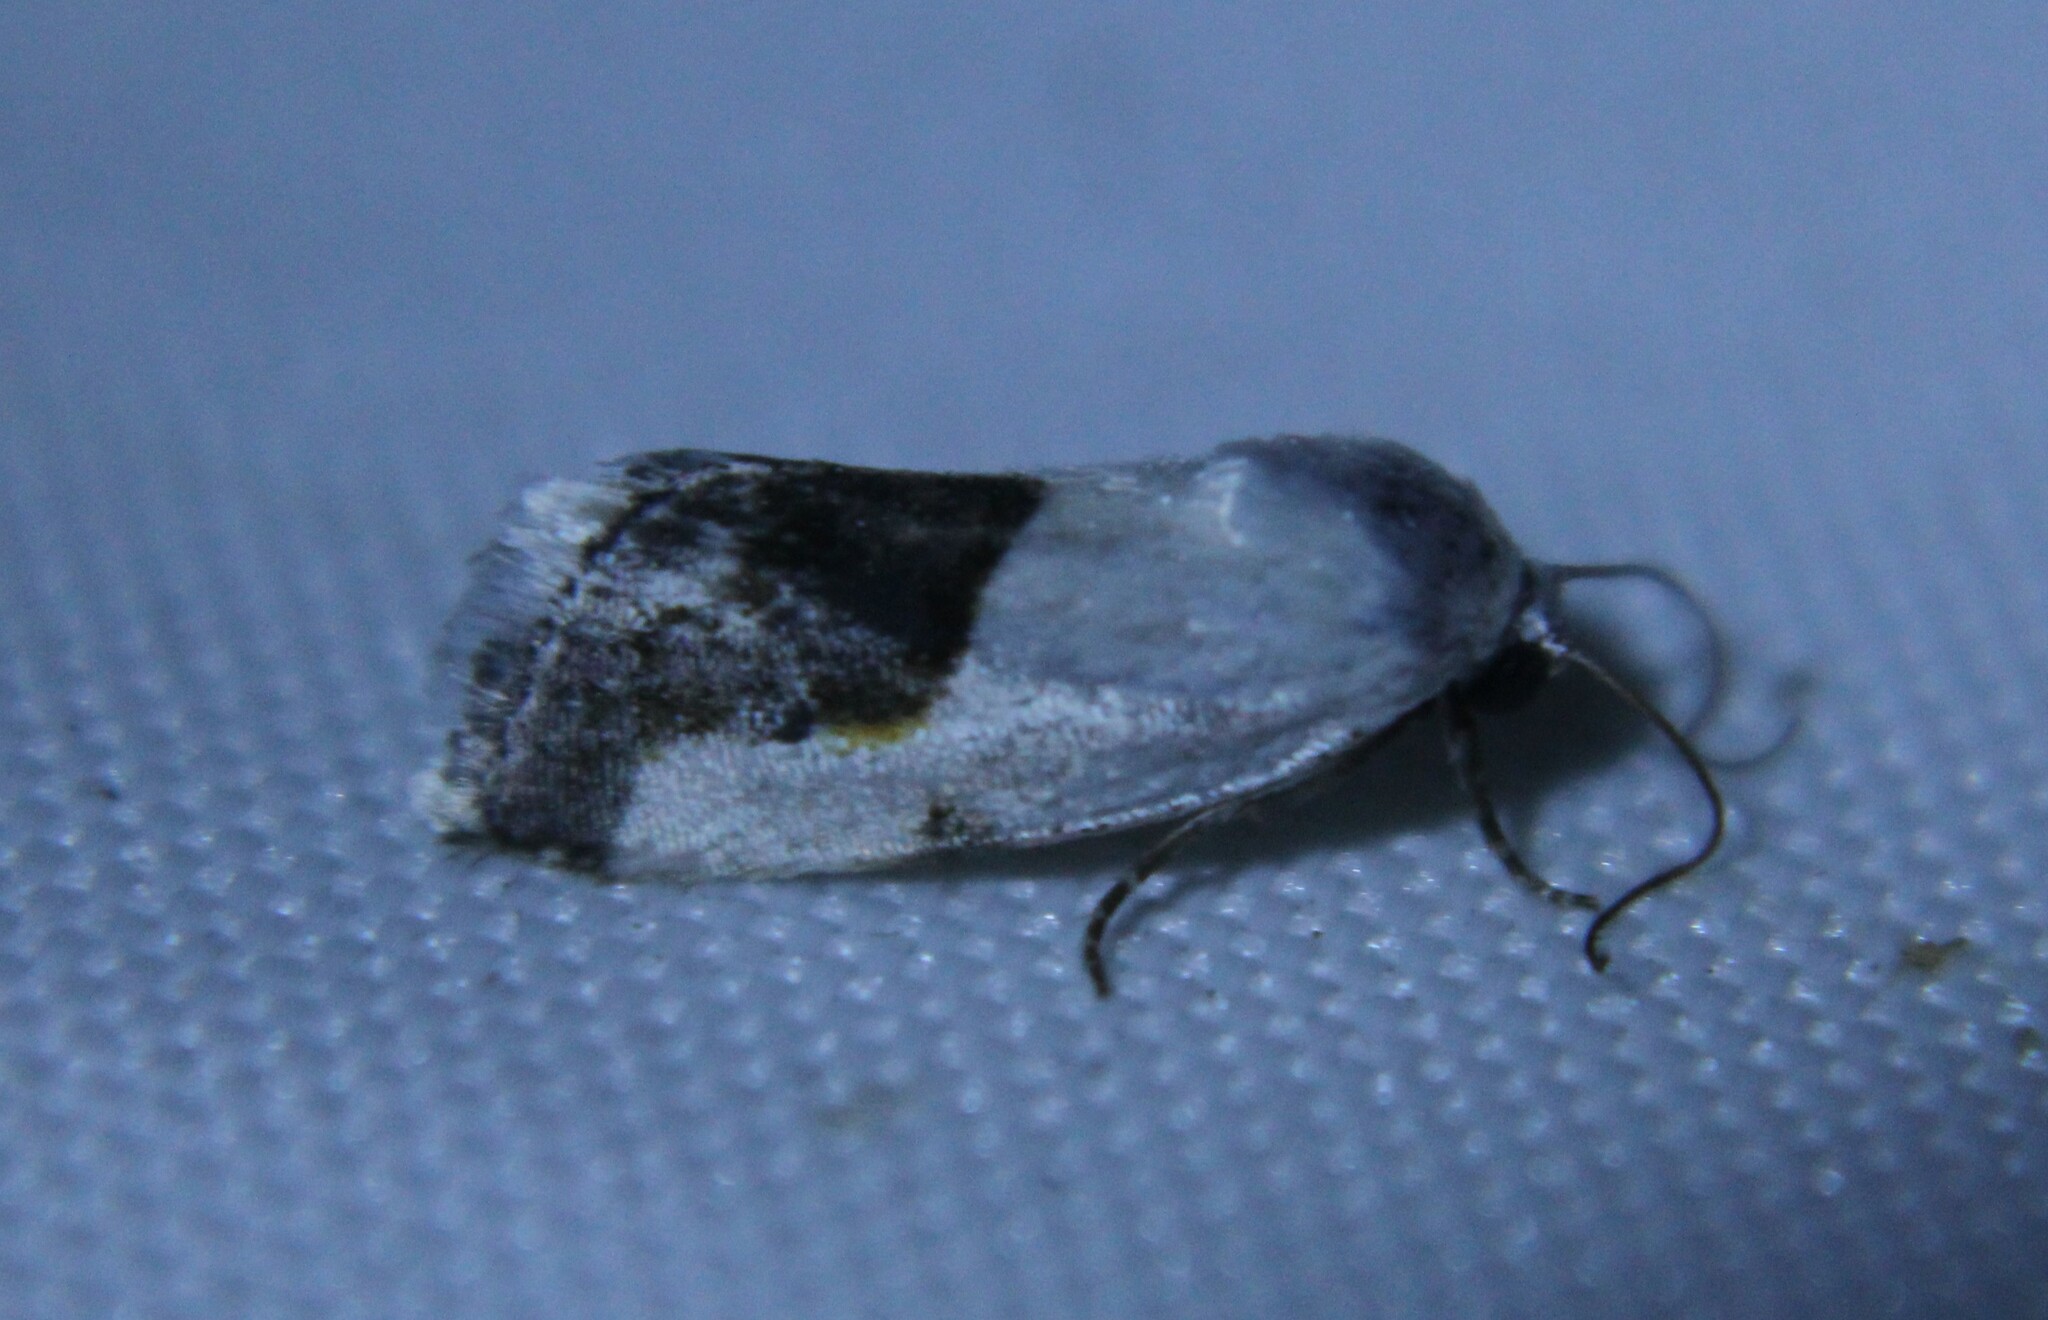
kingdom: Animalia
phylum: Arthropoda
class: Insecta
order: Lepidoptera
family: Noctuidae
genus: Acontia
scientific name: Acontia dorneri
